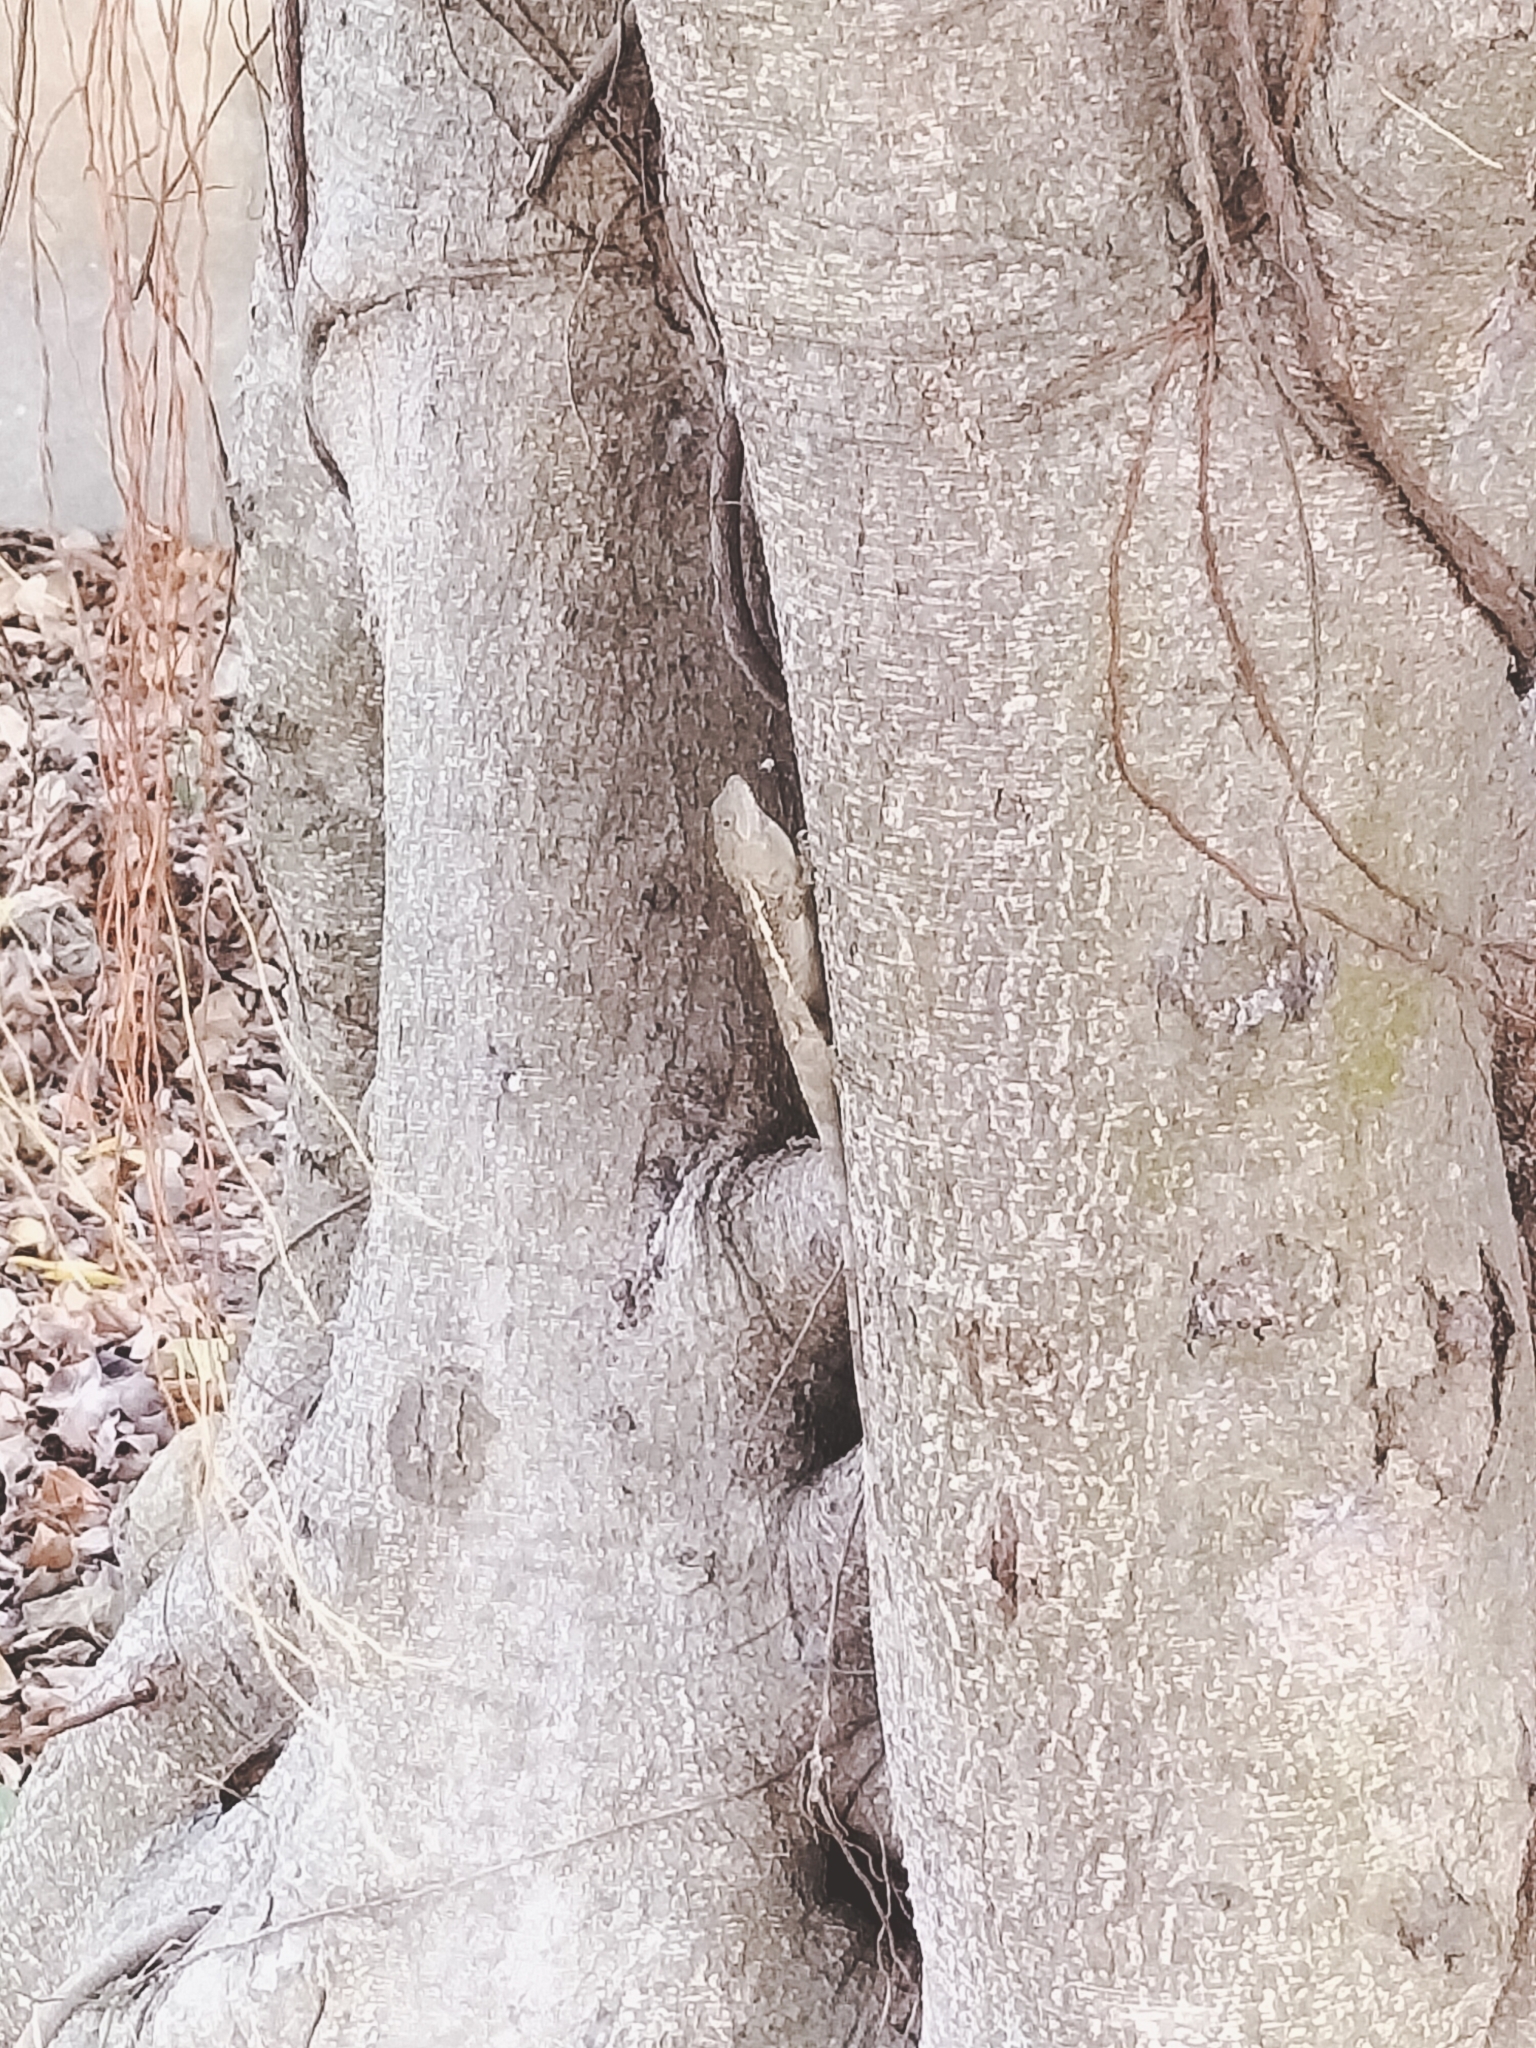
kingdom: Animalia
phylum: Chordata
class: Squamata
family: Agamidae
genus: Diploderma
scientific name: Diploderma swinhonis
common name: Taiwan japalure
